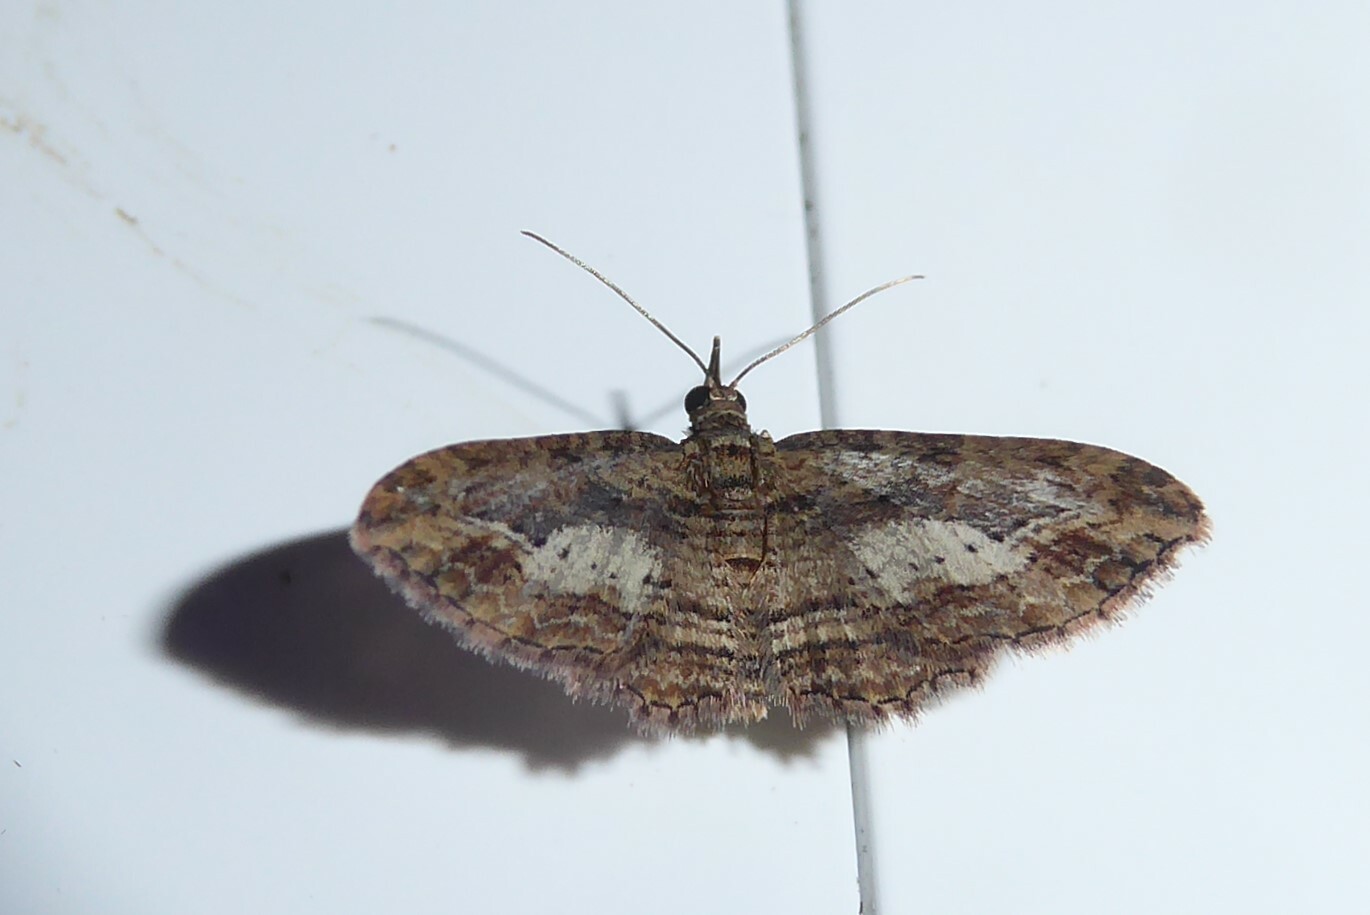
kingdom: Animalia
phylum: Arthropoda
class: Insecta
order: Lepidoptera
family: Geometridae
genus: Chloroclystis
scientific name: Chloroclystis filata
